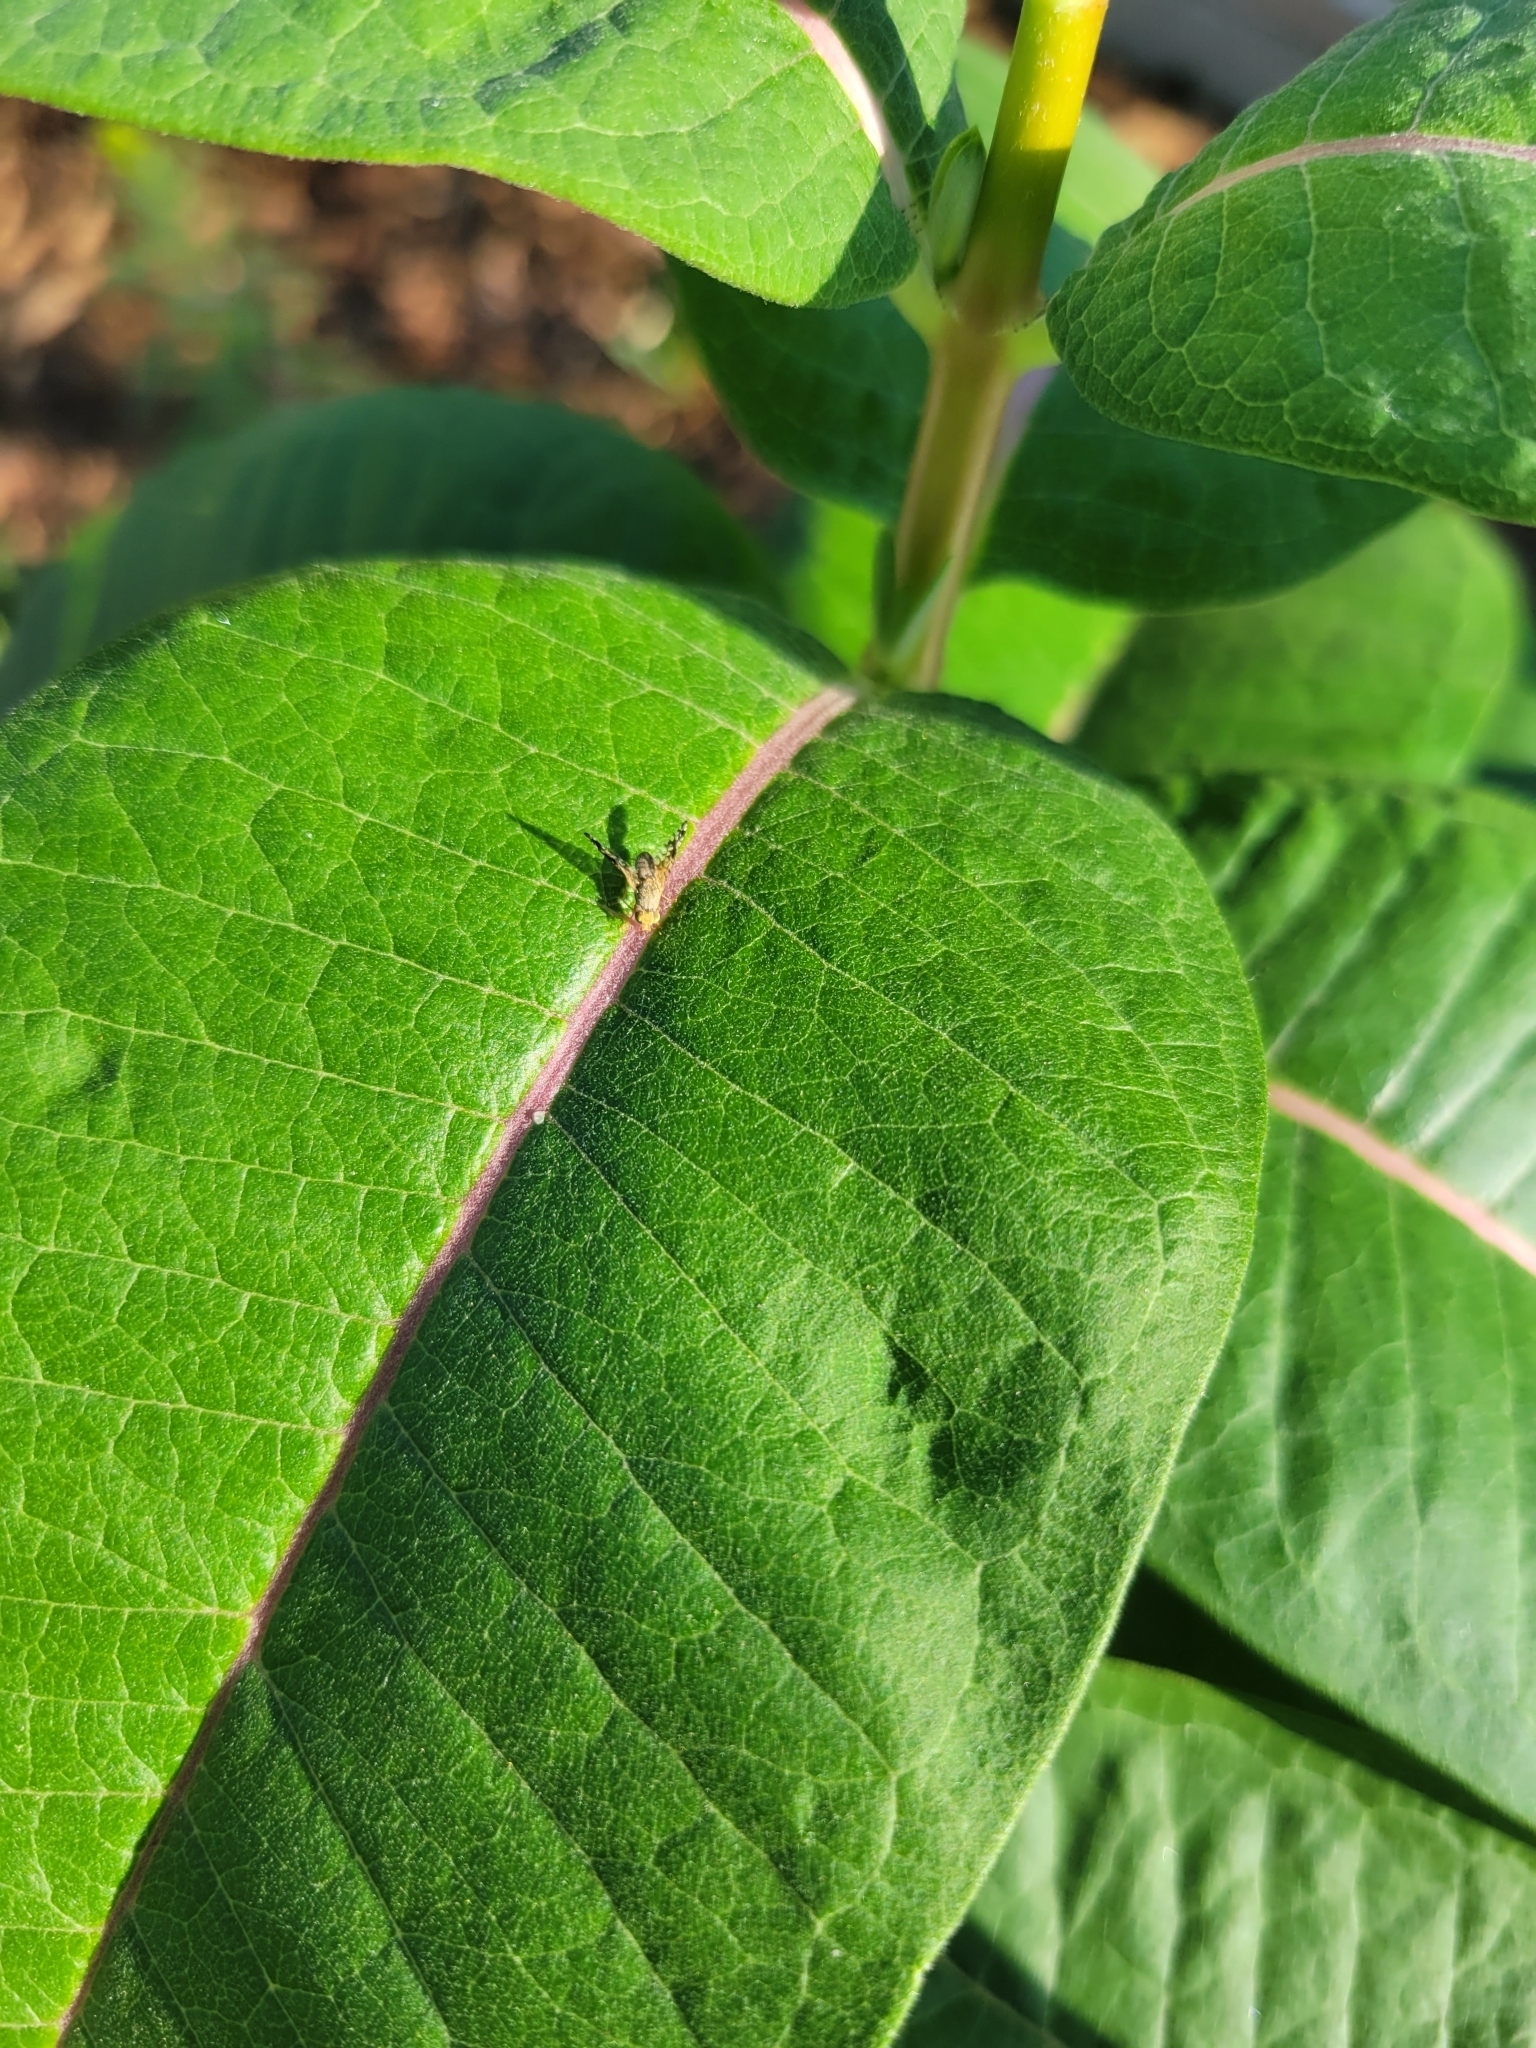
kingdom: Animalia
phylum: Arthropoda
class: Insecta
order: Diptera
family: Tephritidae
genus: Neotephritis
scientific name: Neotephritis finalis
